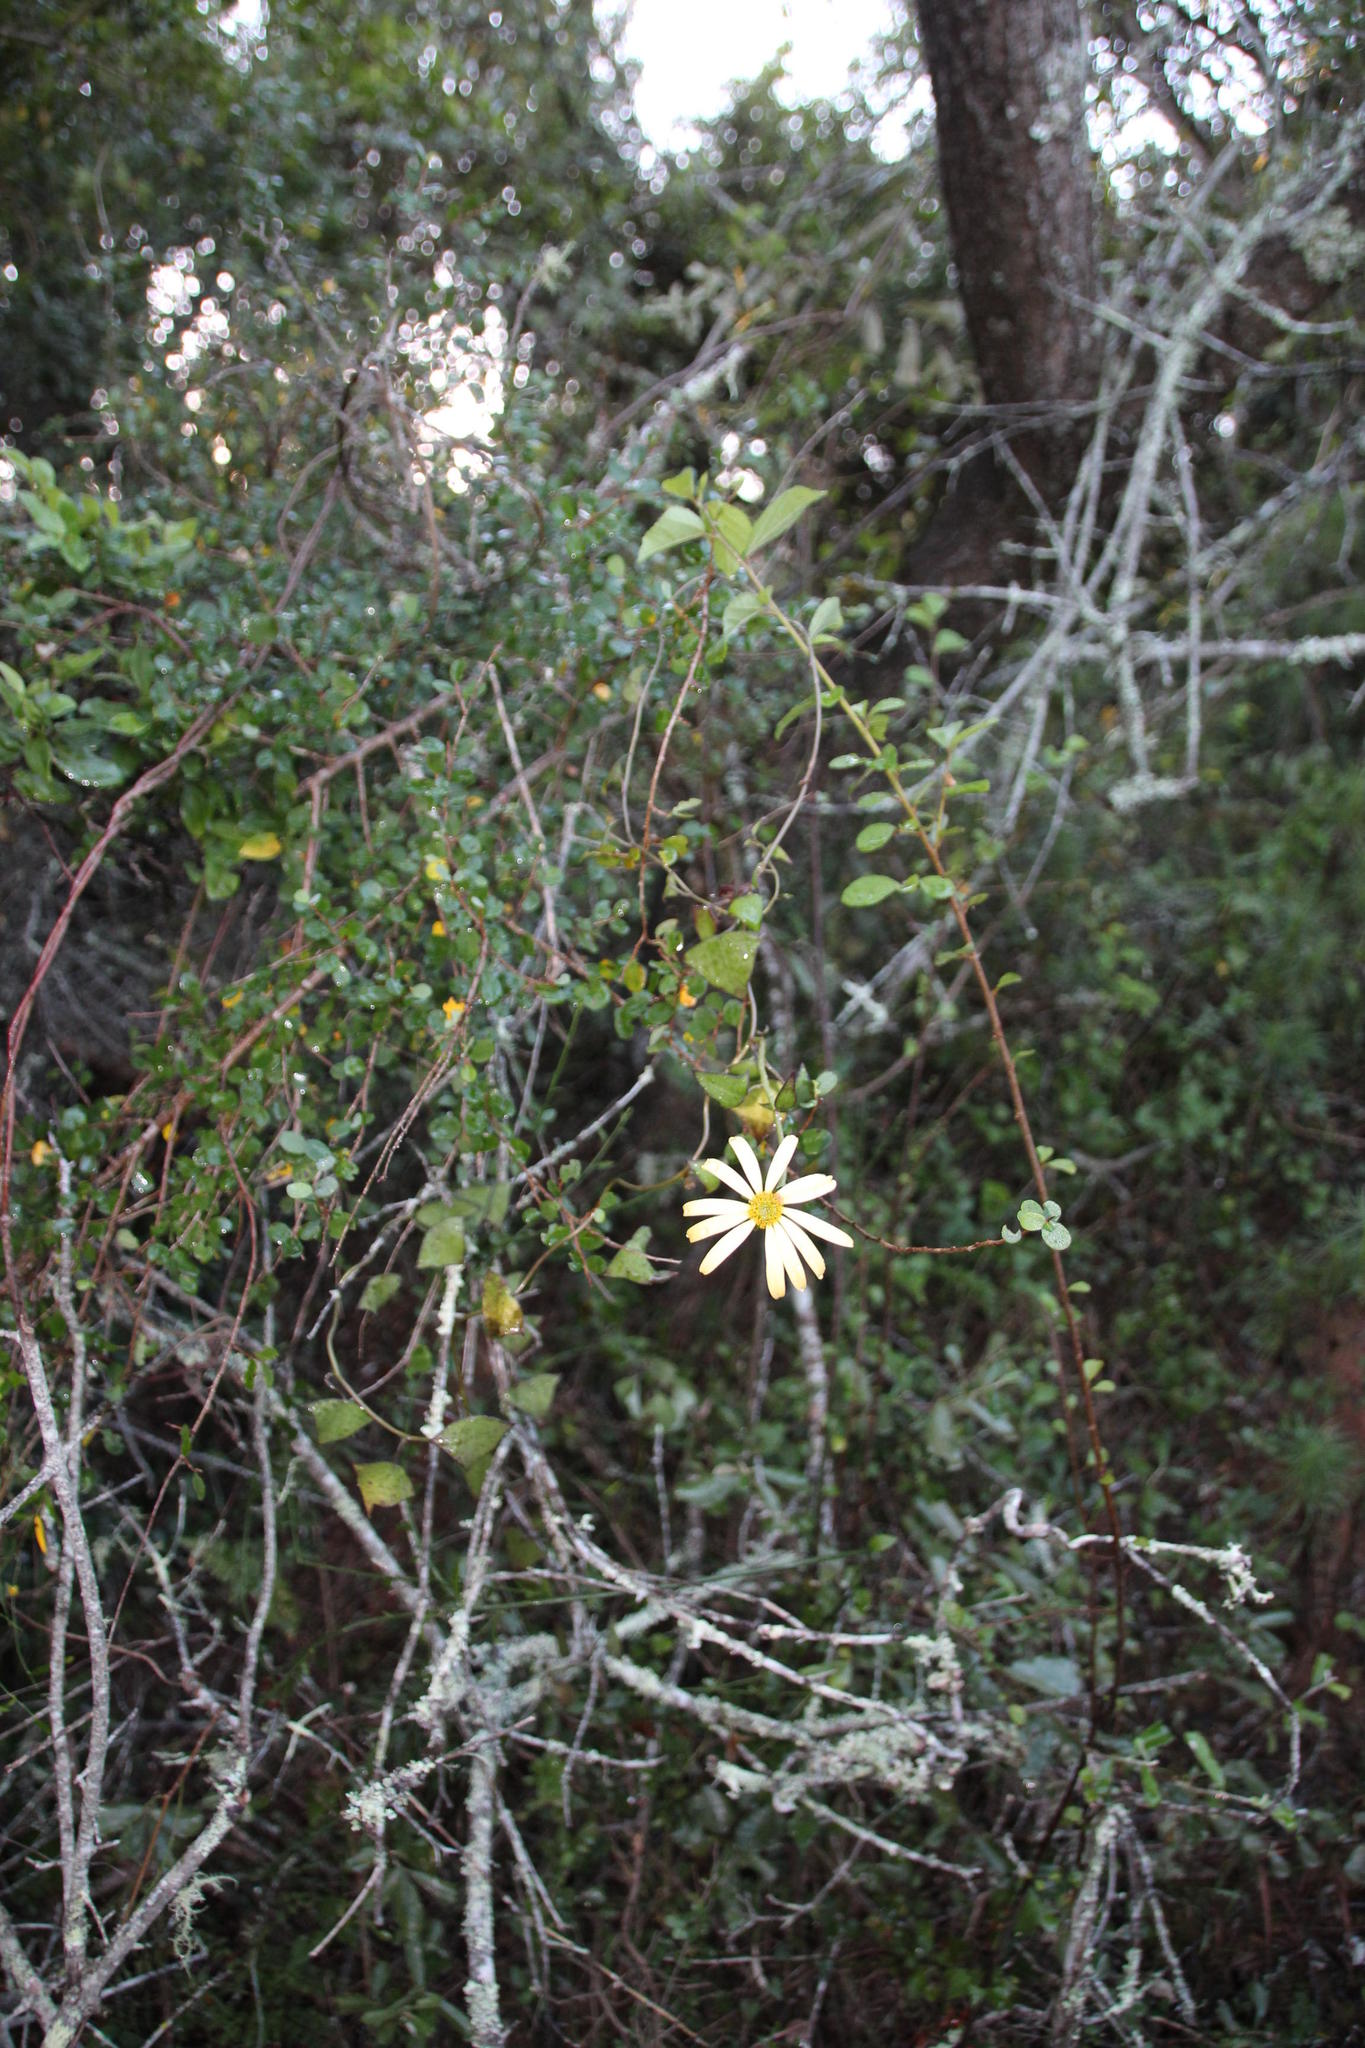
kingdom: Plantae
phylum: Tracheophyta
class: Magnoliopsida
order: Asterales
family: Asteraceae
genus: Senecio
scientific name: Senecio macroglossus
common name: Natal-ivy
